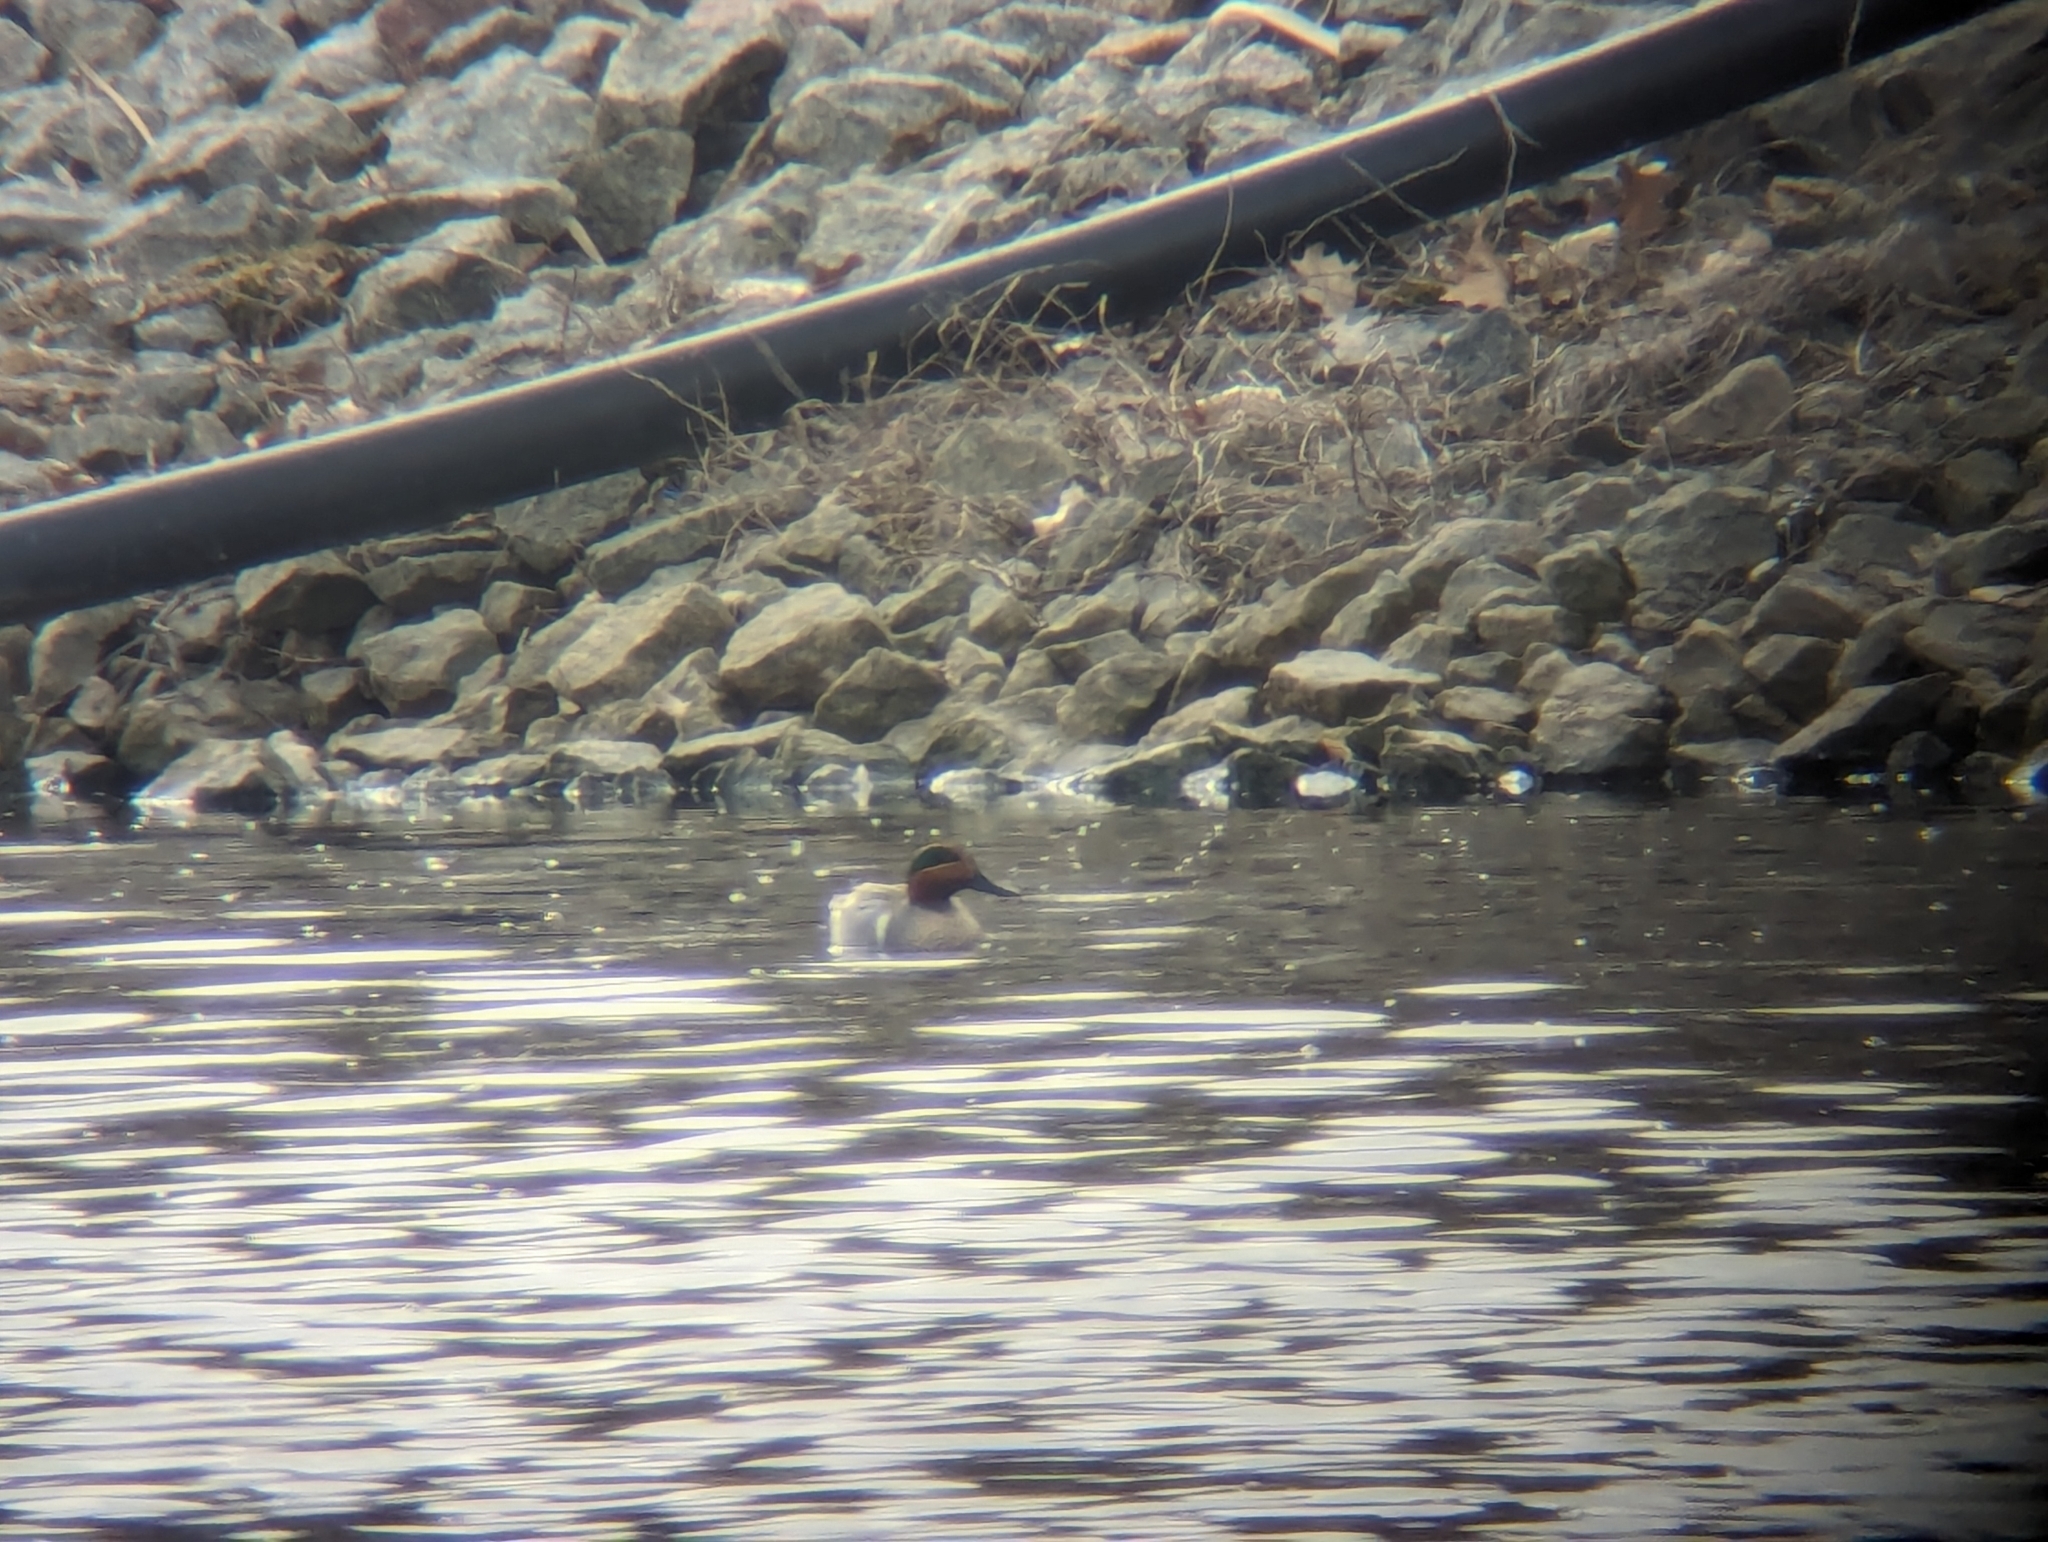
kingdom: Animalia
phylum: Chordata
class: Aves
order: Anseriformes
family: Anatidae
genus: Anas
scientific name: Anas crecca
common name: Eurasian teal
